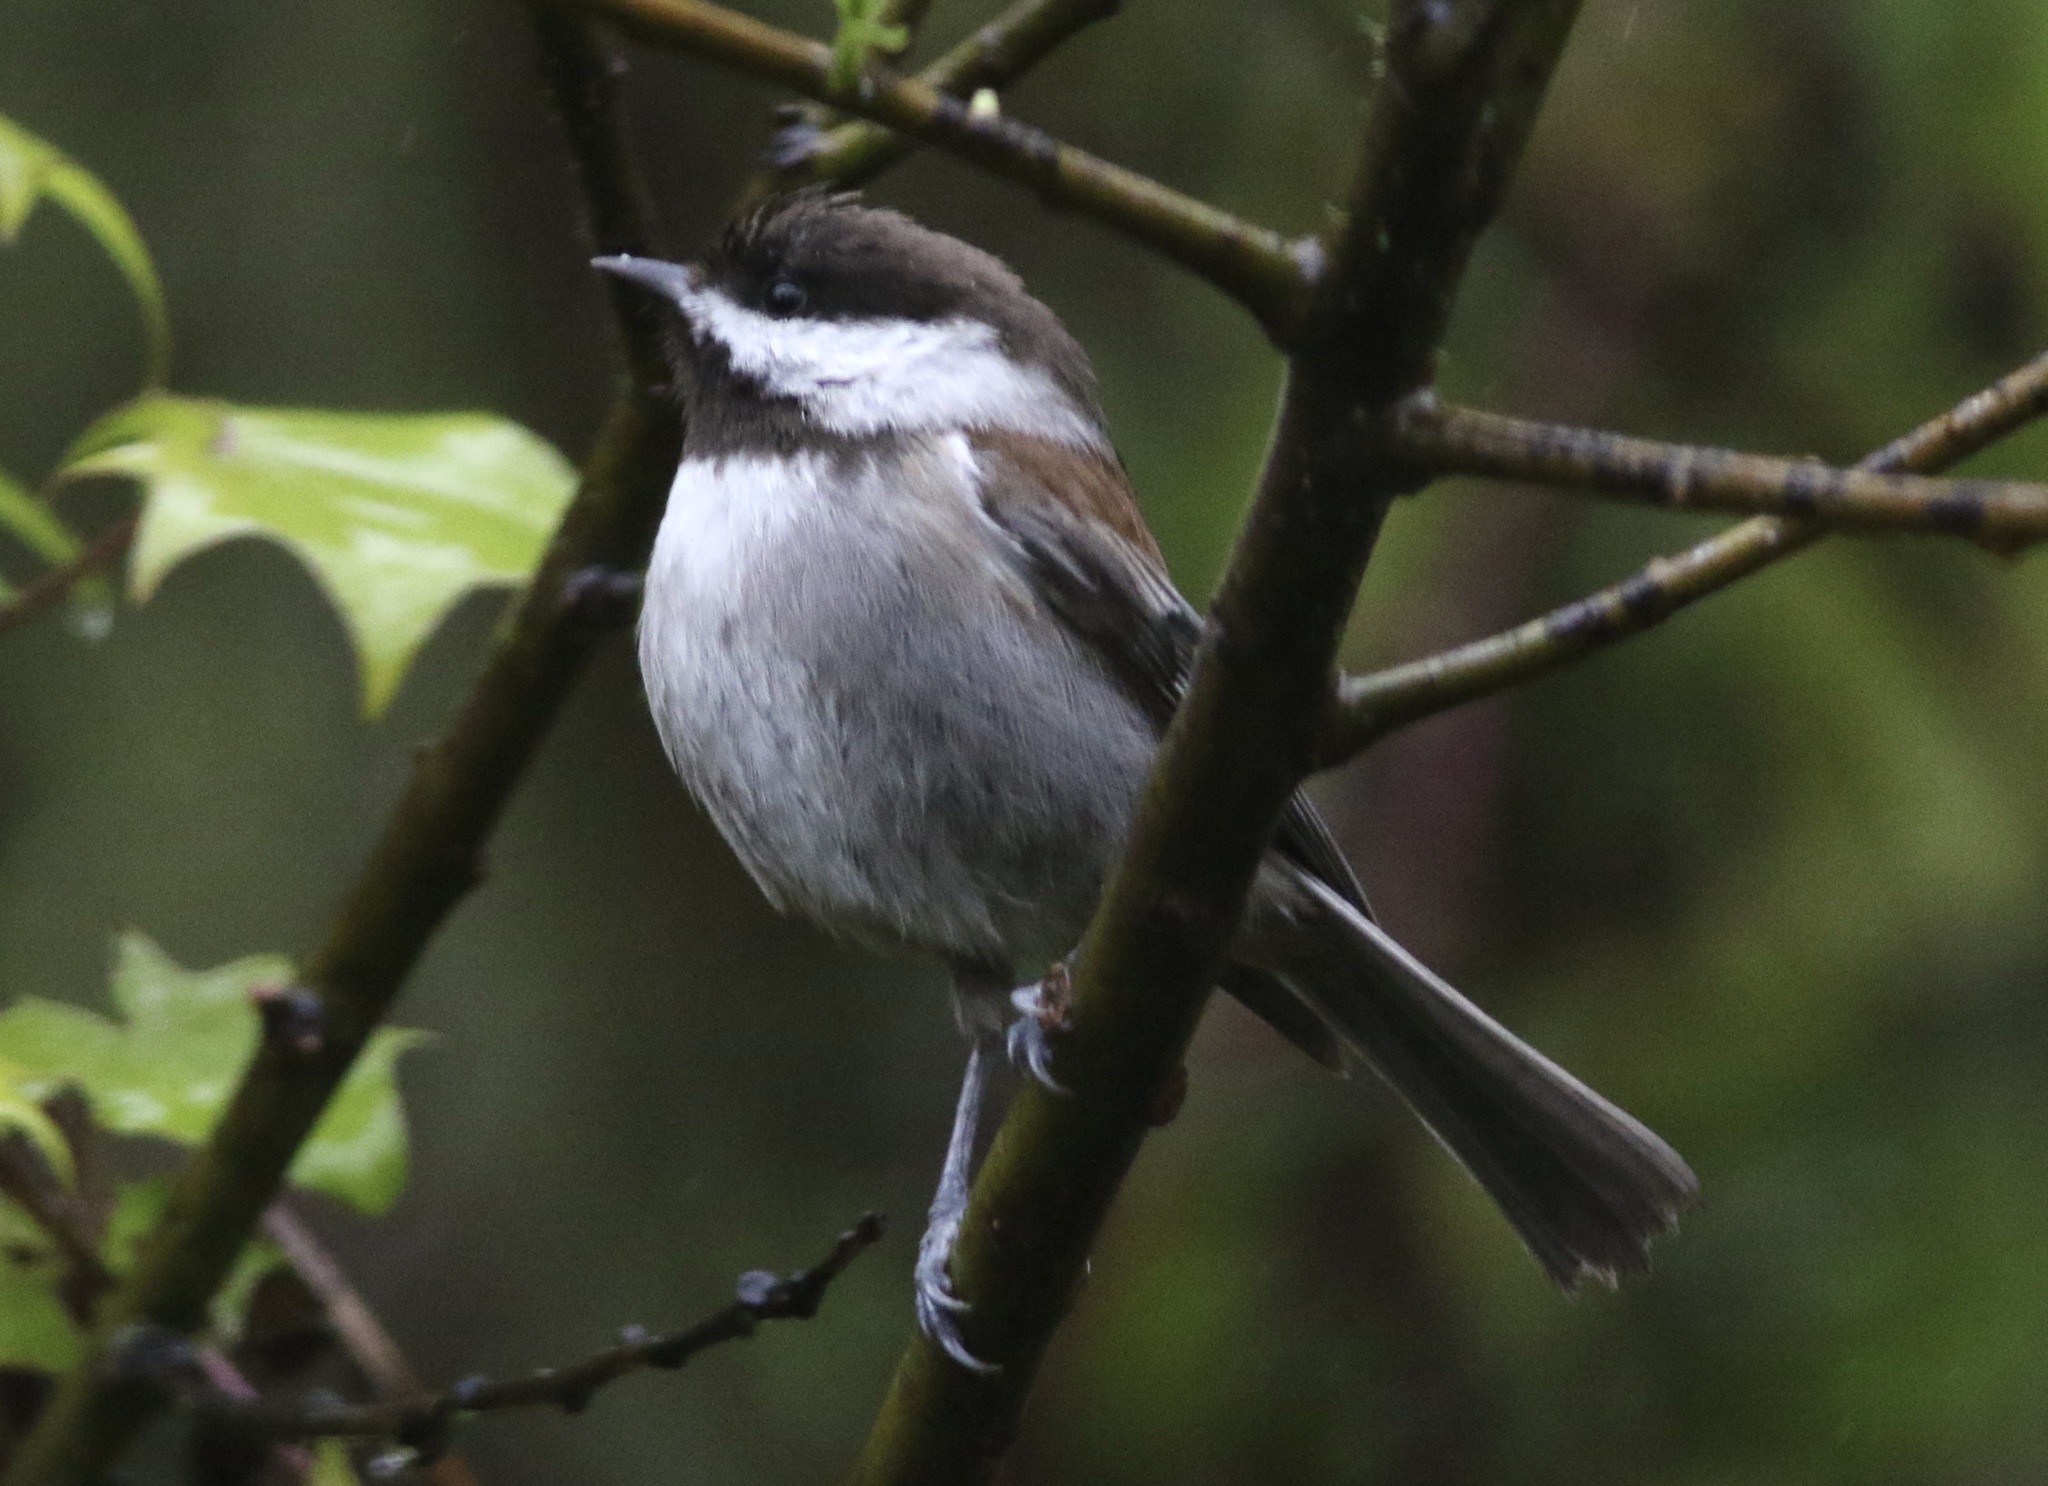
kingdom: Animalia
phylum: Chordata
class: Aves
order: Passeriformes
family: Paridae
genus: Poecile
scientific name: Poecile rufescens
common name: Chestnut-backed chickadee
